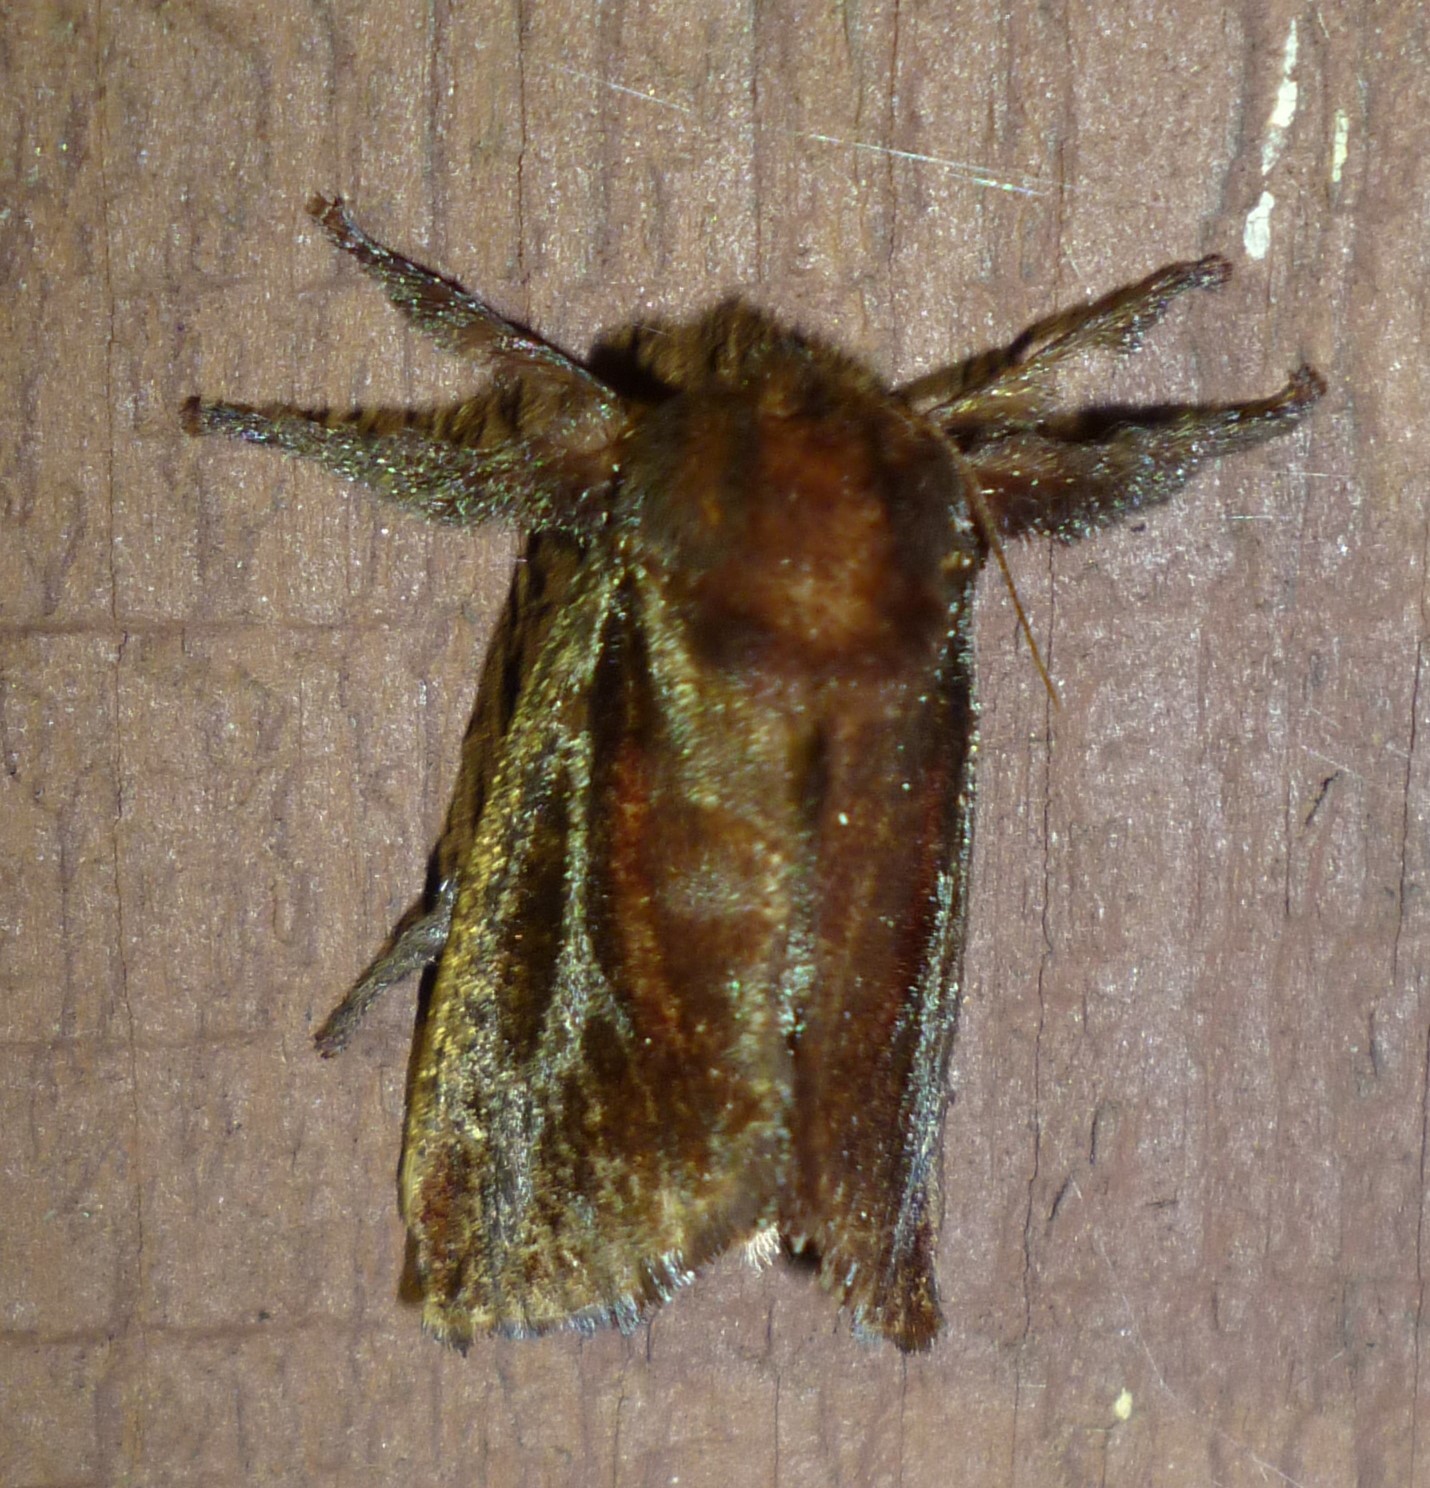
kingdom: Animalia
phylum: Arthropoda
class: Insecta
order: Lepidoptera
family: Limacodidae
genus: Acharia
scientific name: Acharia stimulea
